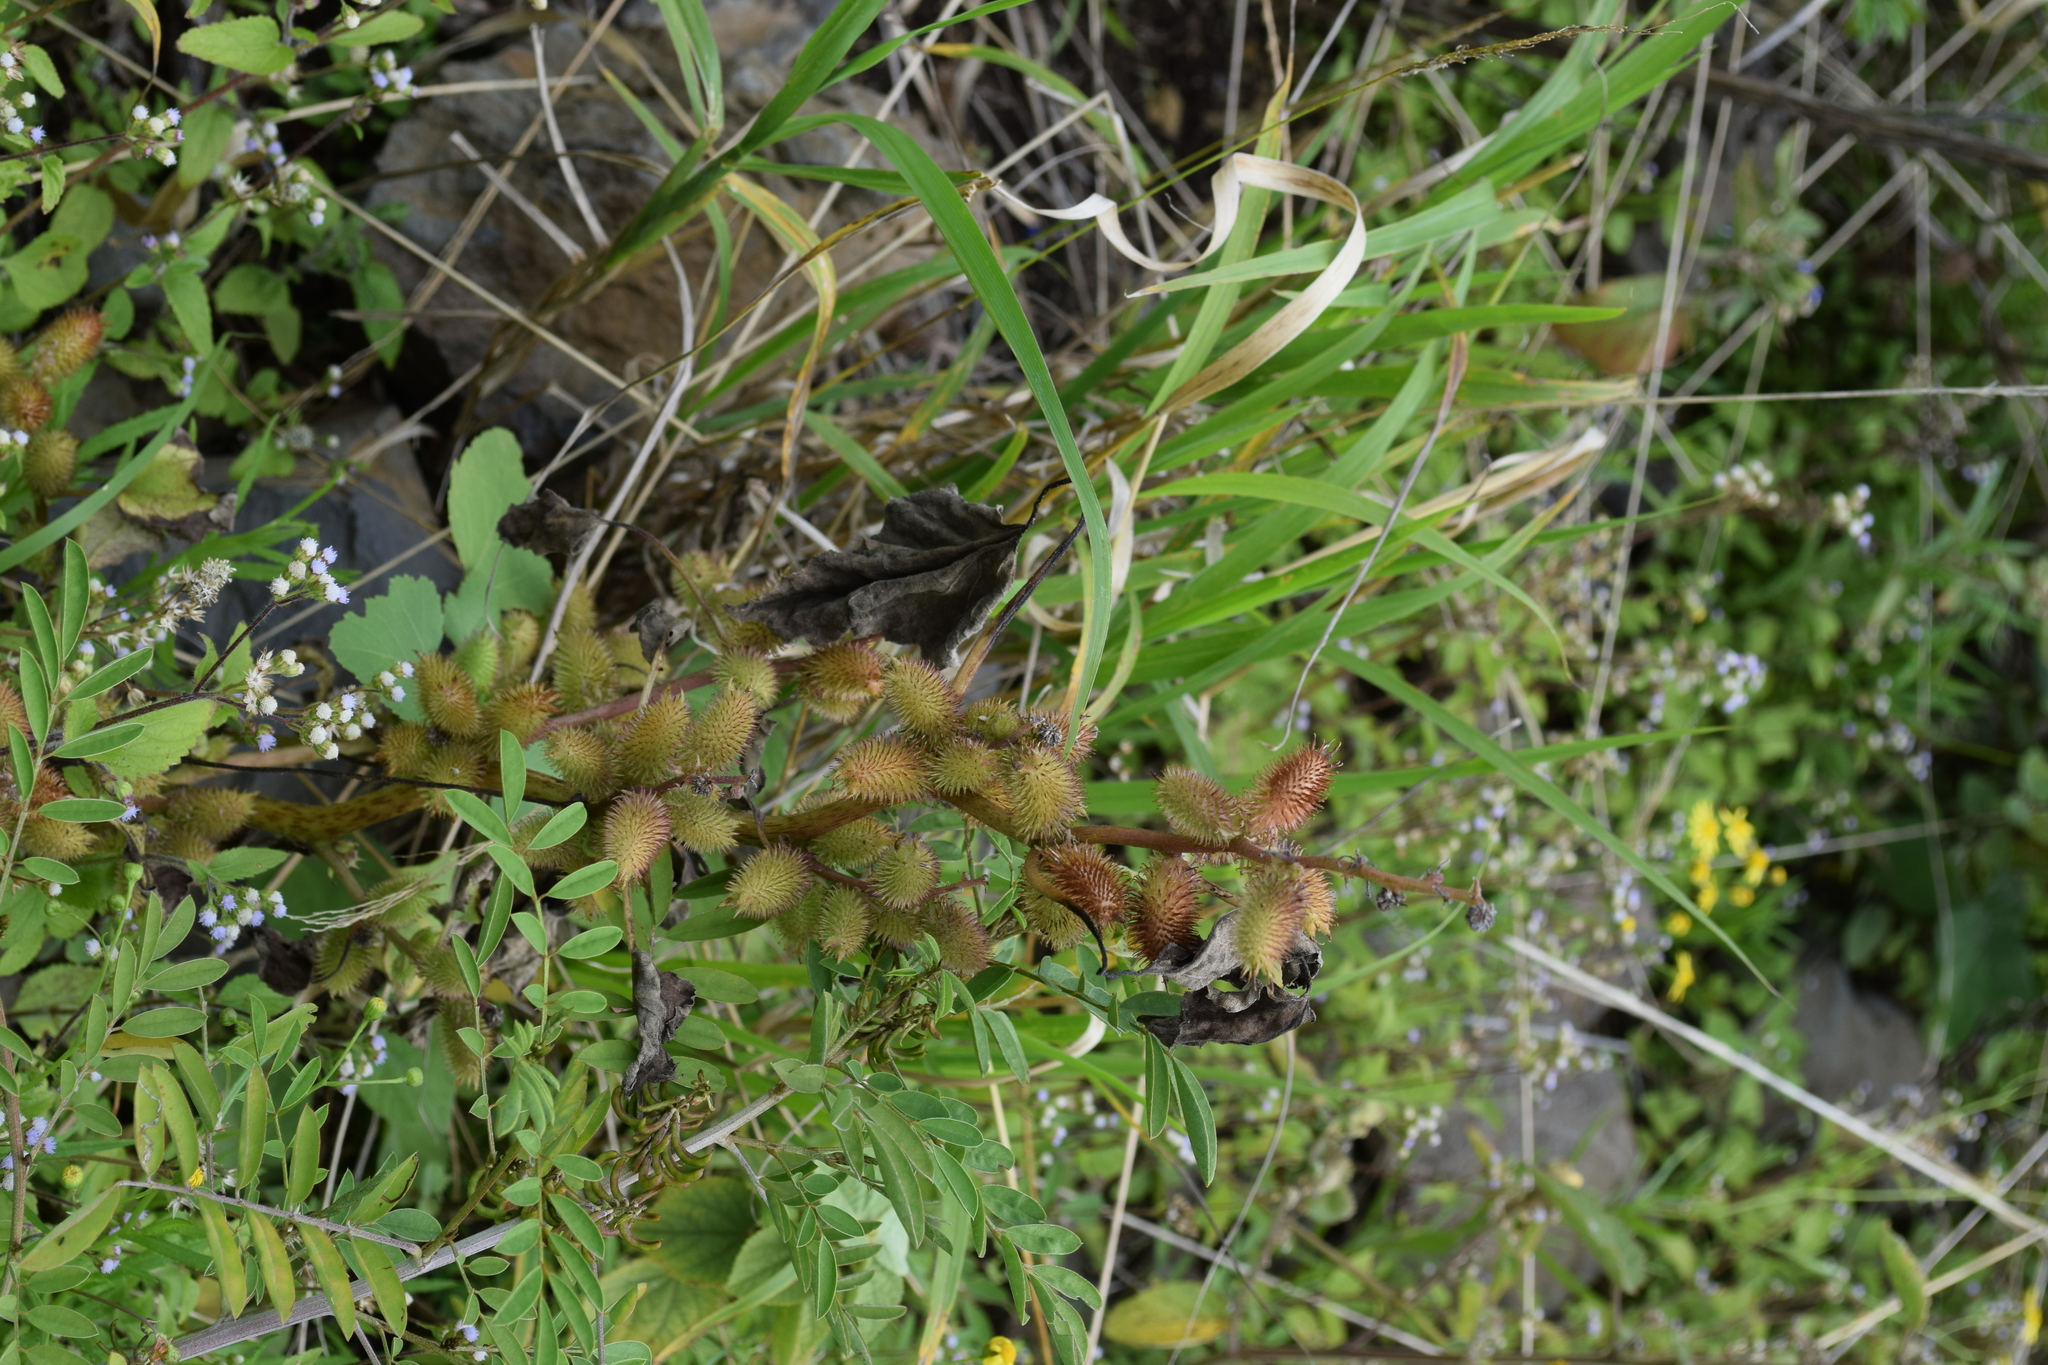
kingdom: Plantae
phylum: Tracheophyta
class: Magnoliopsida
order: Asterales
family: Asteraceae
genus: Xanthium
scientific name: Xanthium strumarium
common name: Rough cocklebur
